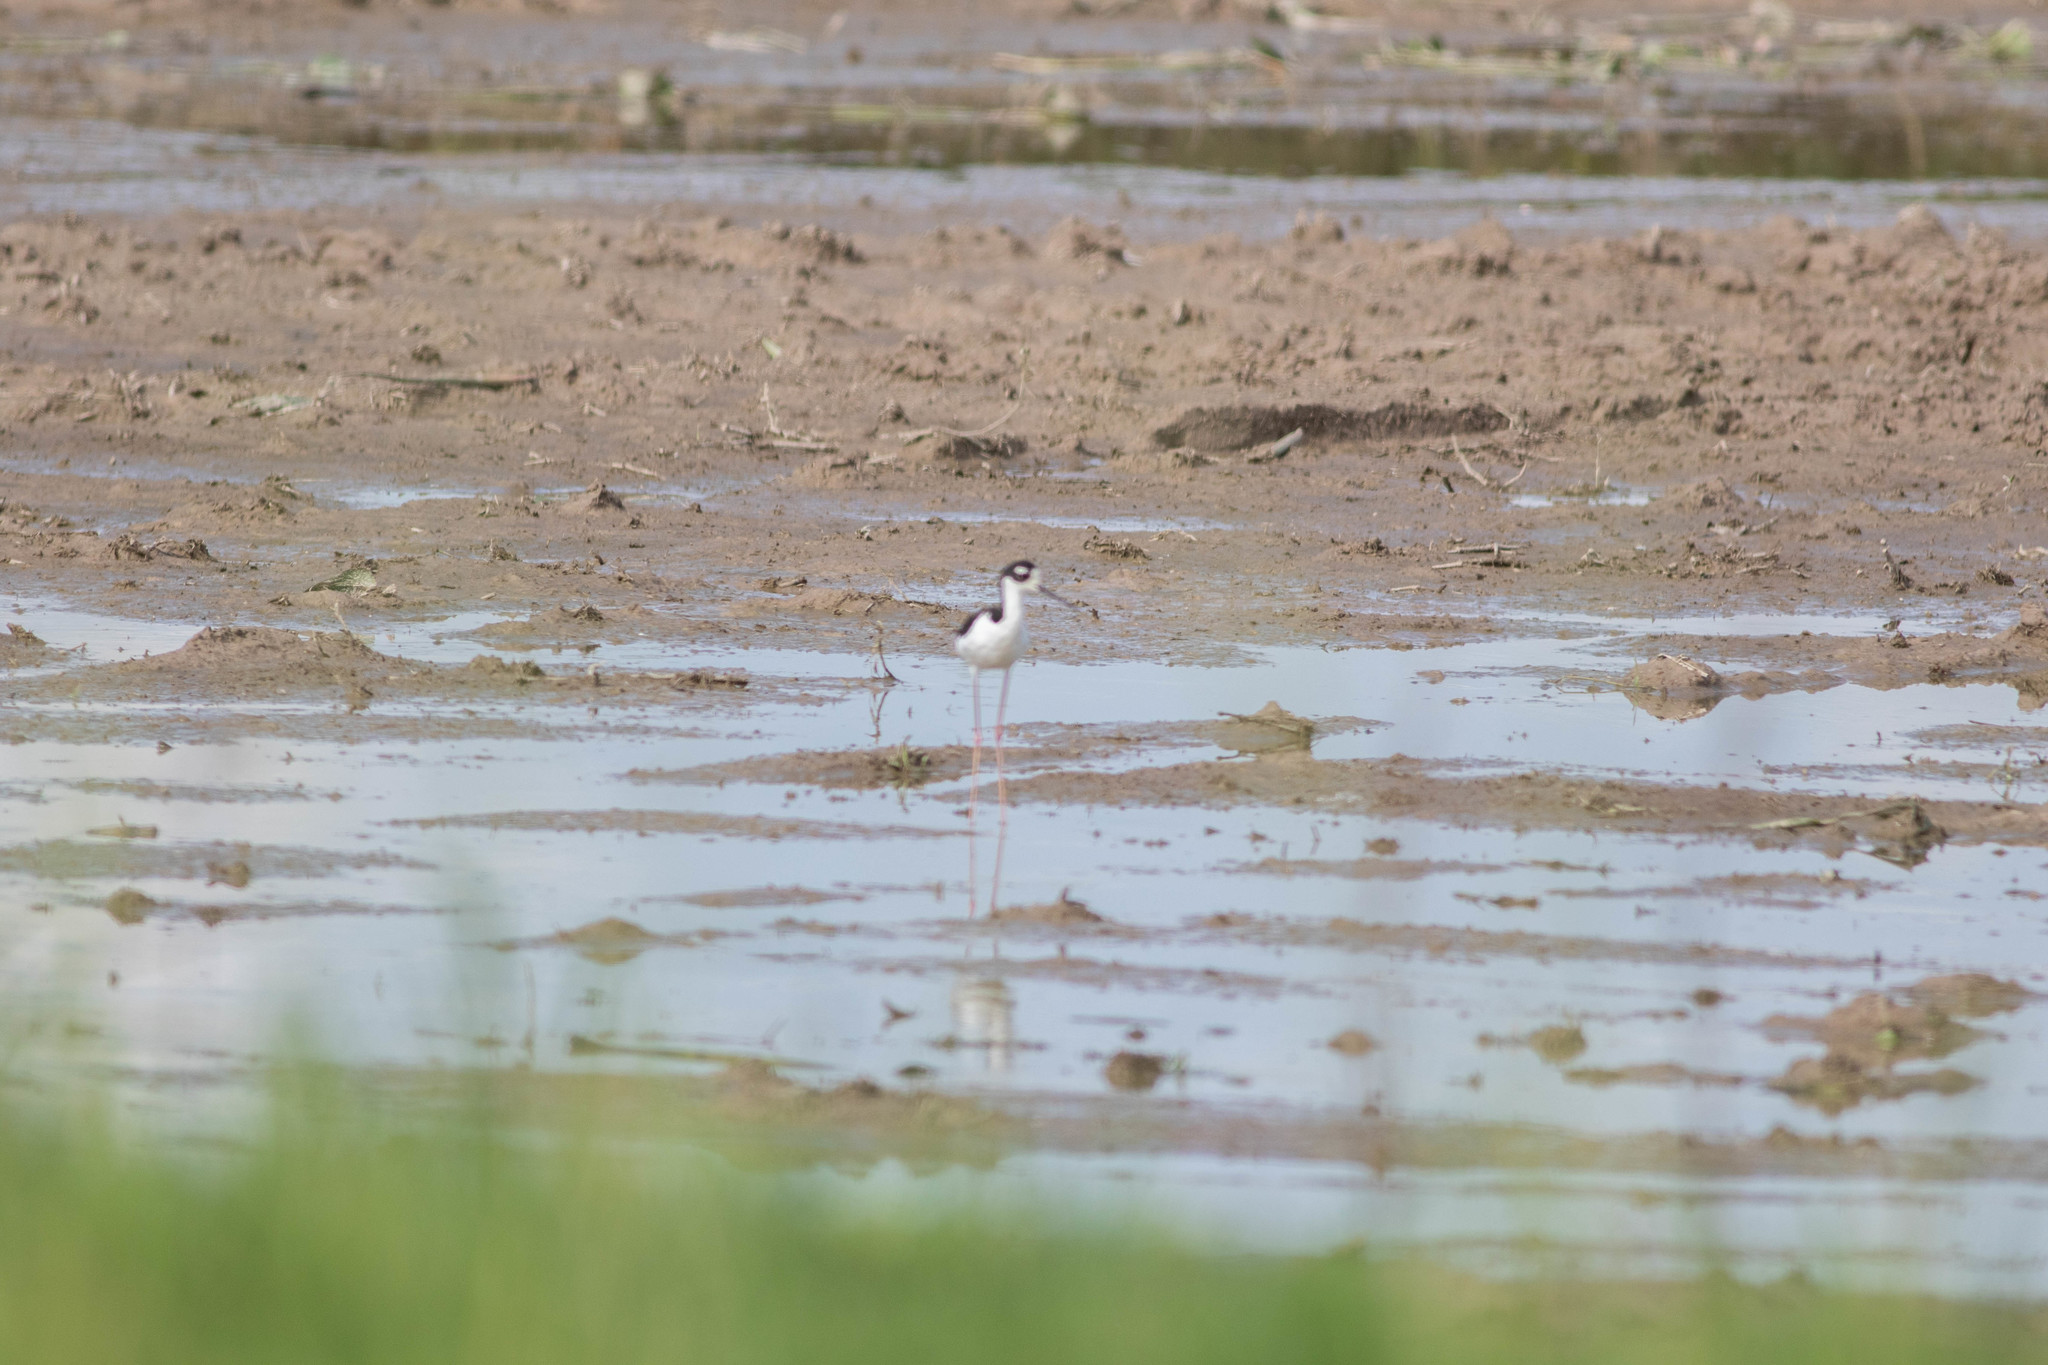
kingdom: Animalia
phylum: Chordata
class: Aves
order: Charadriiformes
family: Recurvirostridae
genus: Himantopus
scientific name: Himantopus mexicanus
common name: Black-necked stilt
